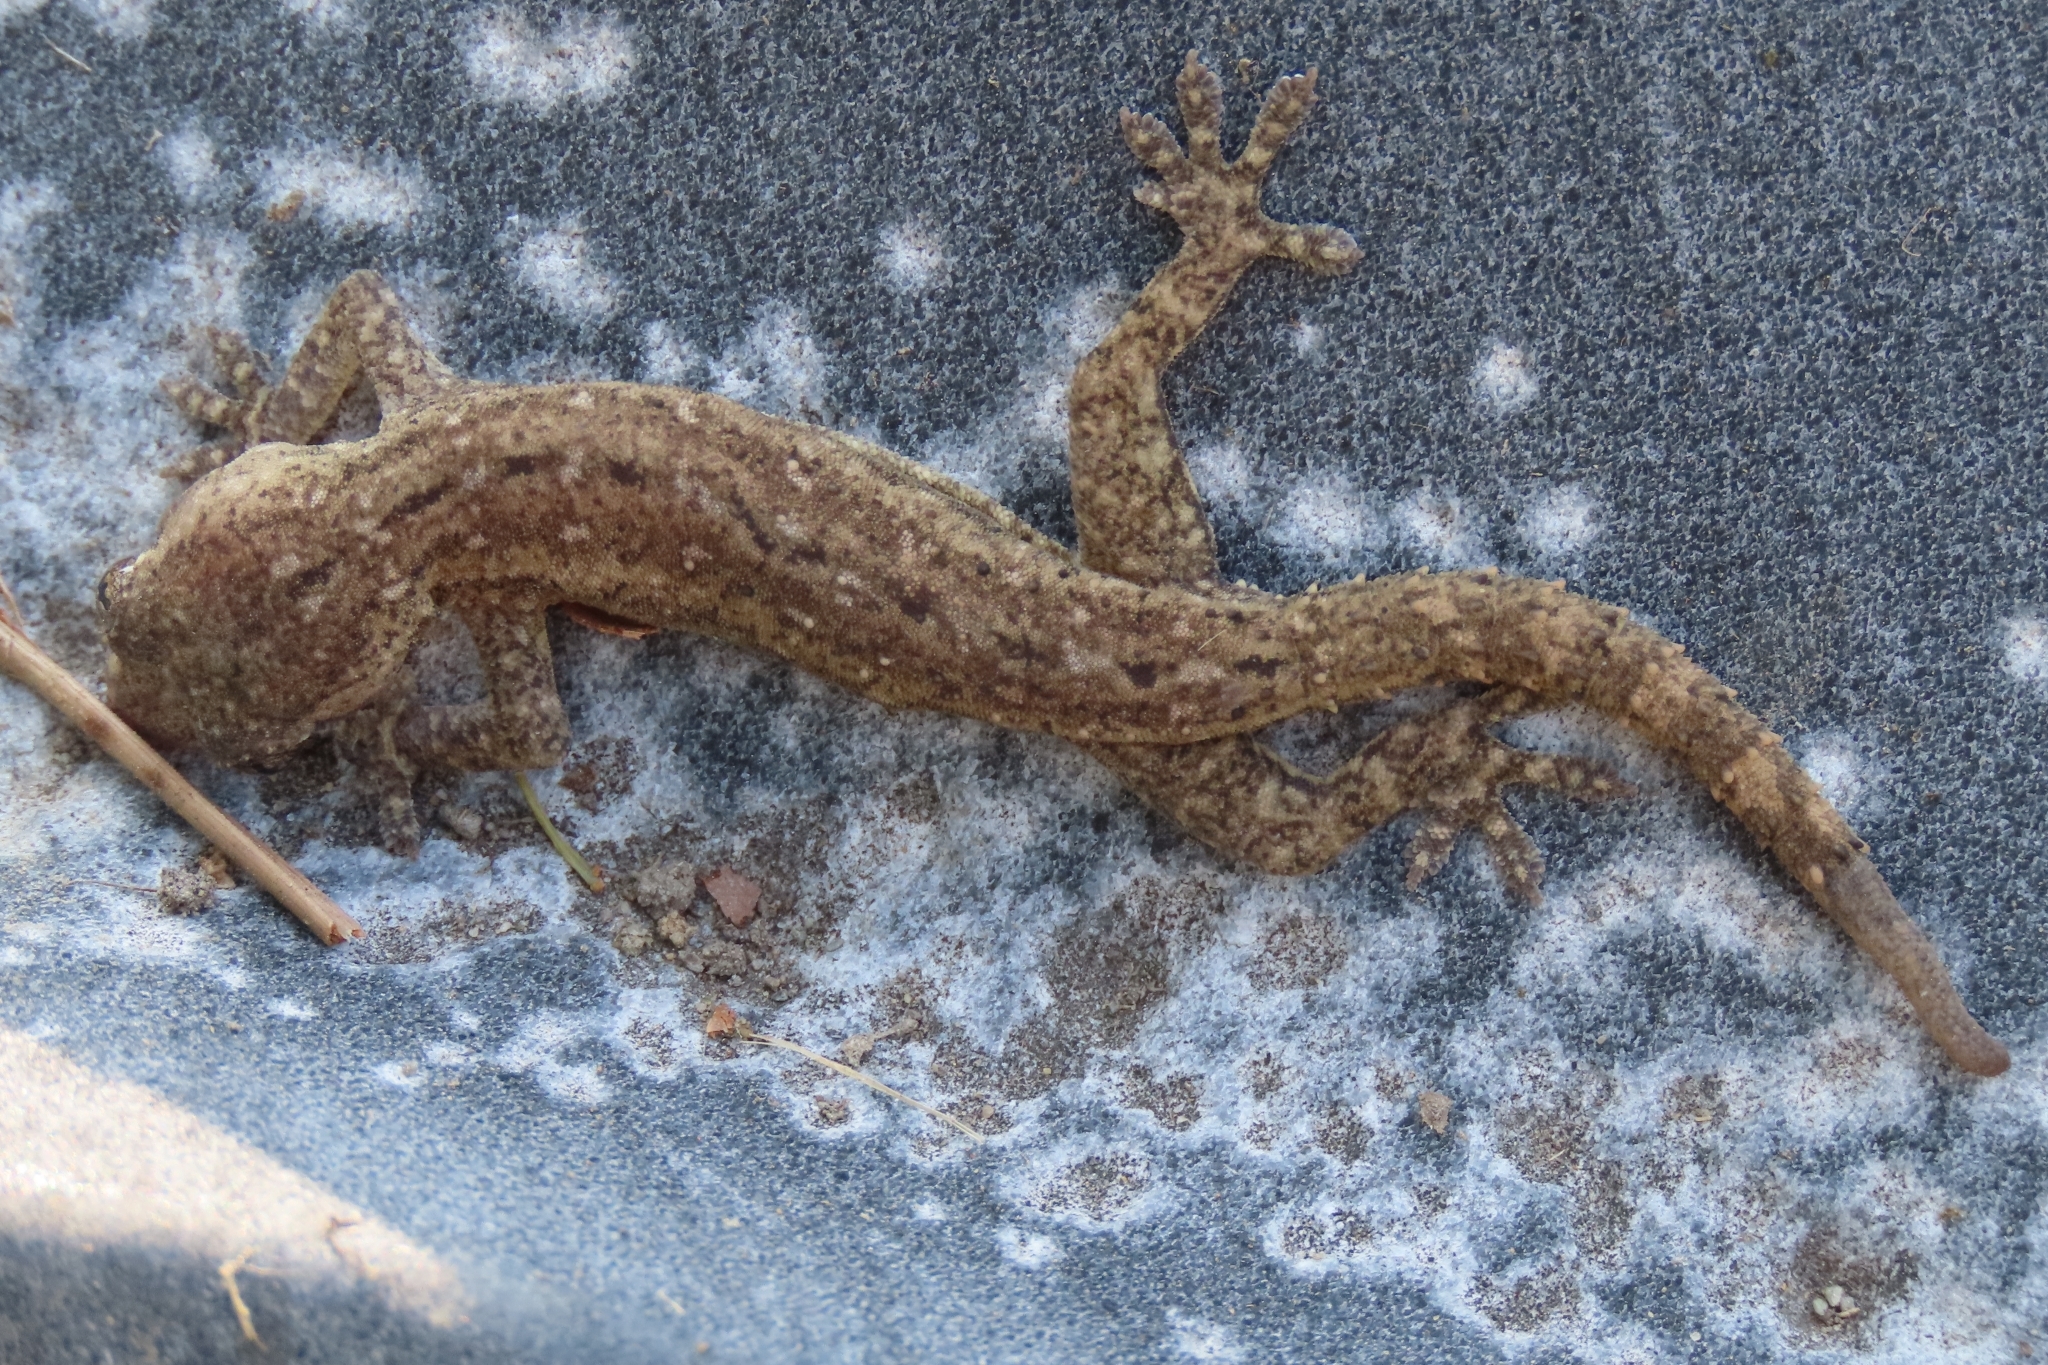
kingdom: Animalia
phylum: Chordata
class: Squamata
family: Gekkonidae
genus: Hemidactylus
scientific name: Hemidactylus frenatus
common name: Common house gecko
